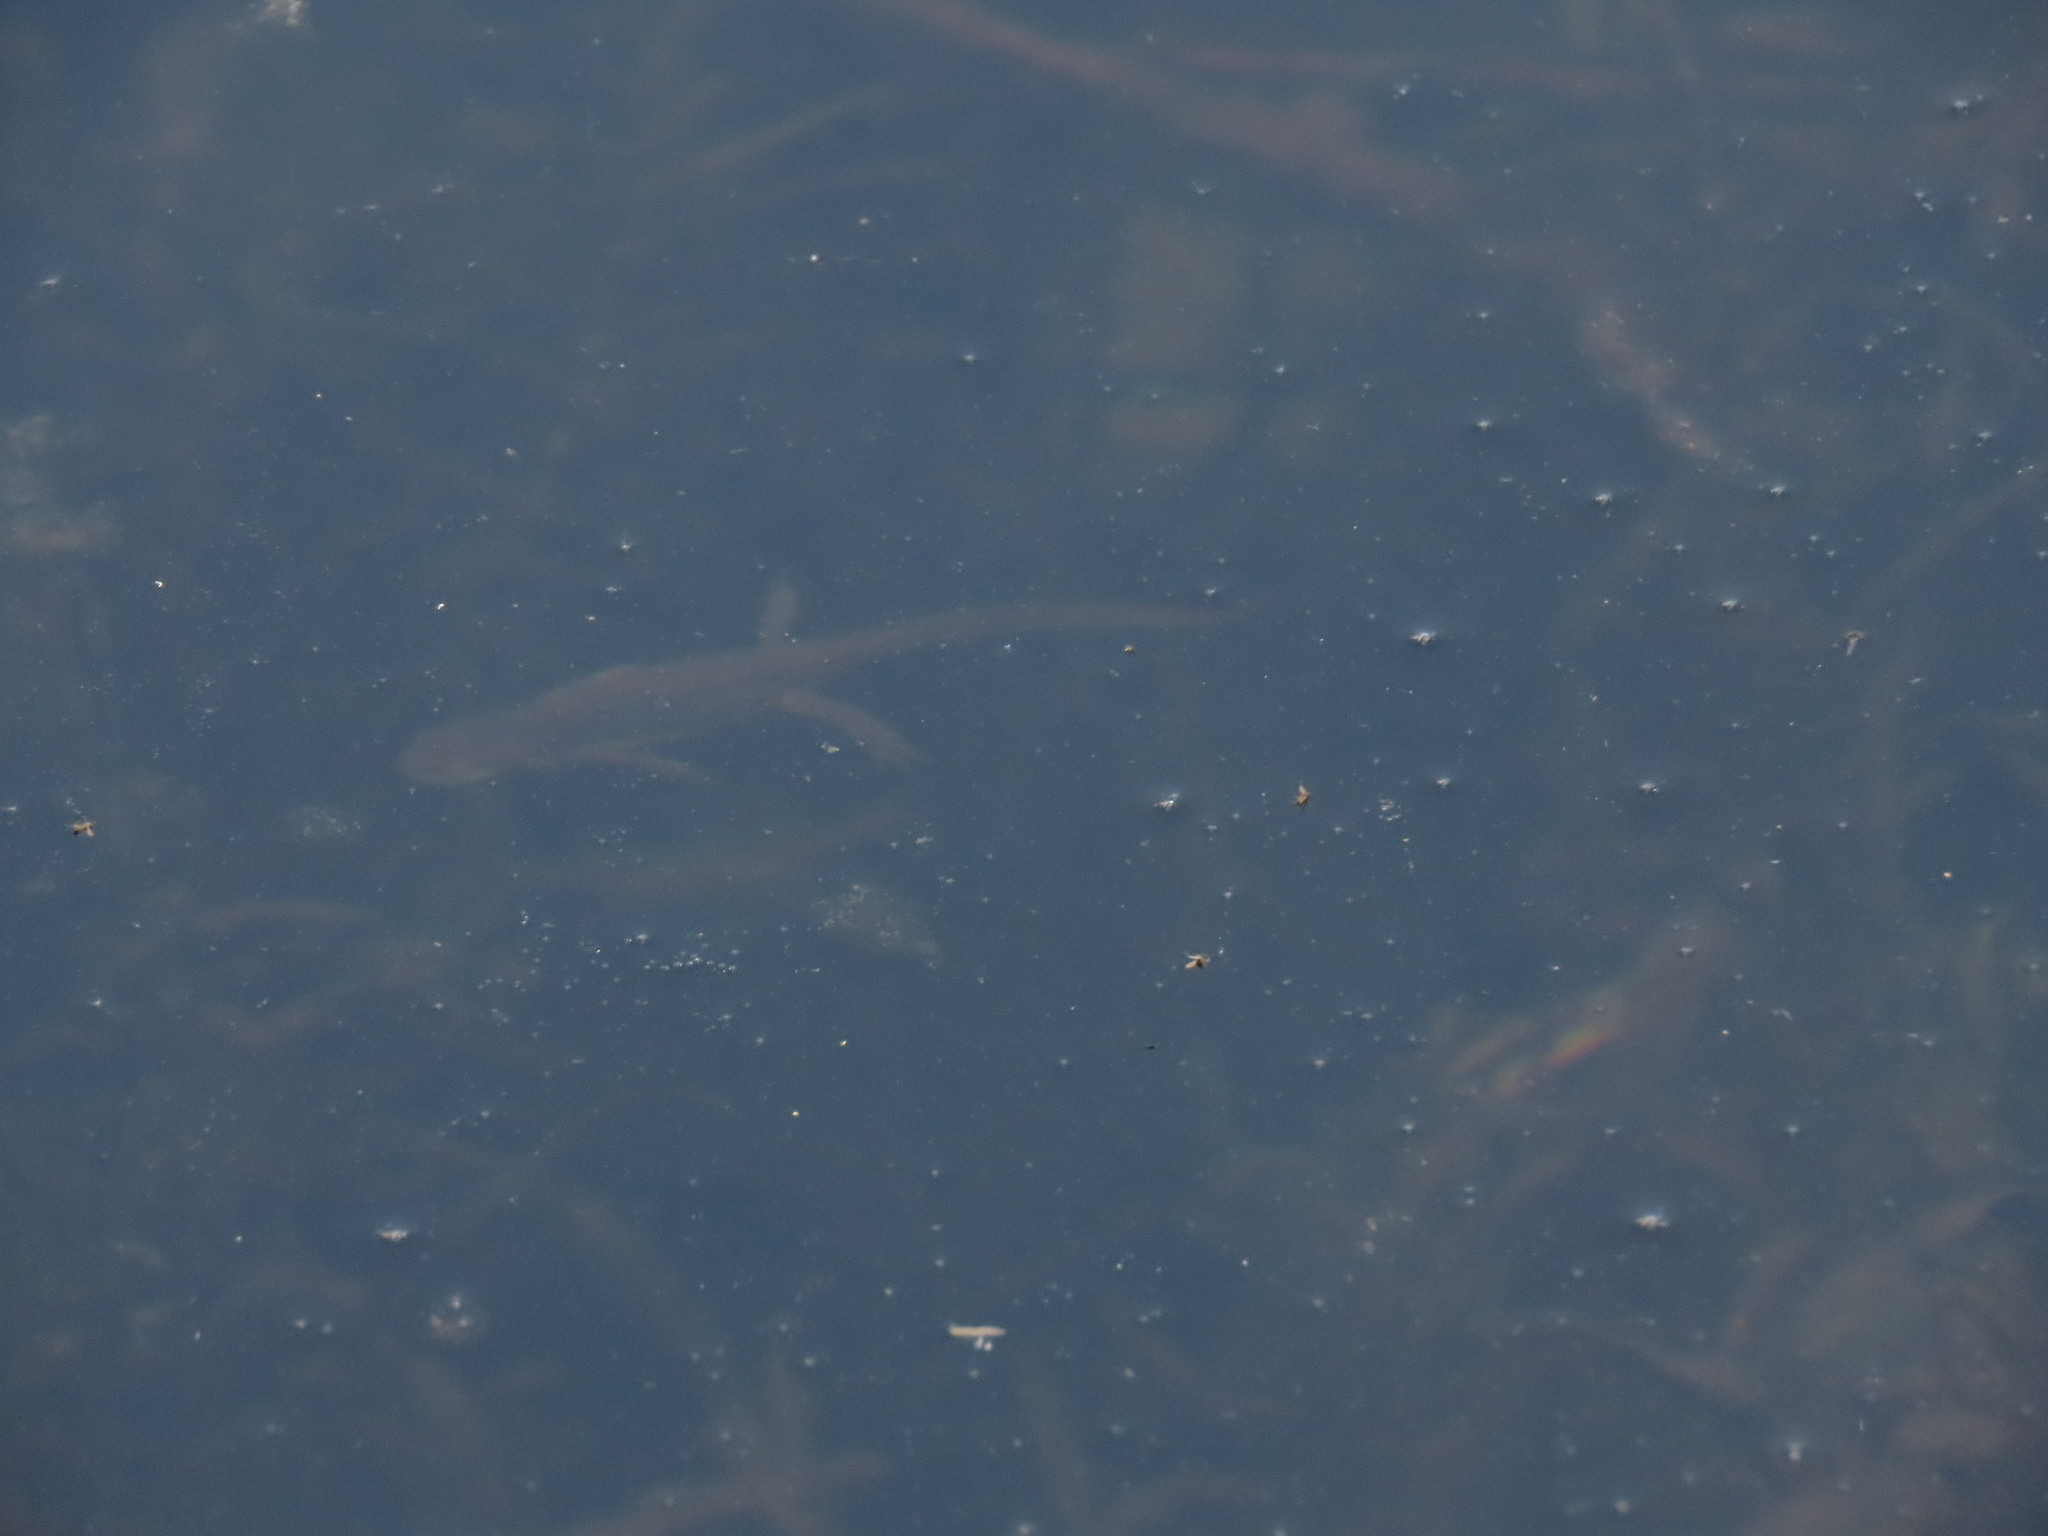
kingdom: Animalia
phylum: Chordata
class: Amphibia
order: Caudata
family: Salamandridae
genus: Notophthalmus
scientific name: Notophthalmus viridescens
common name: Eastern newt
